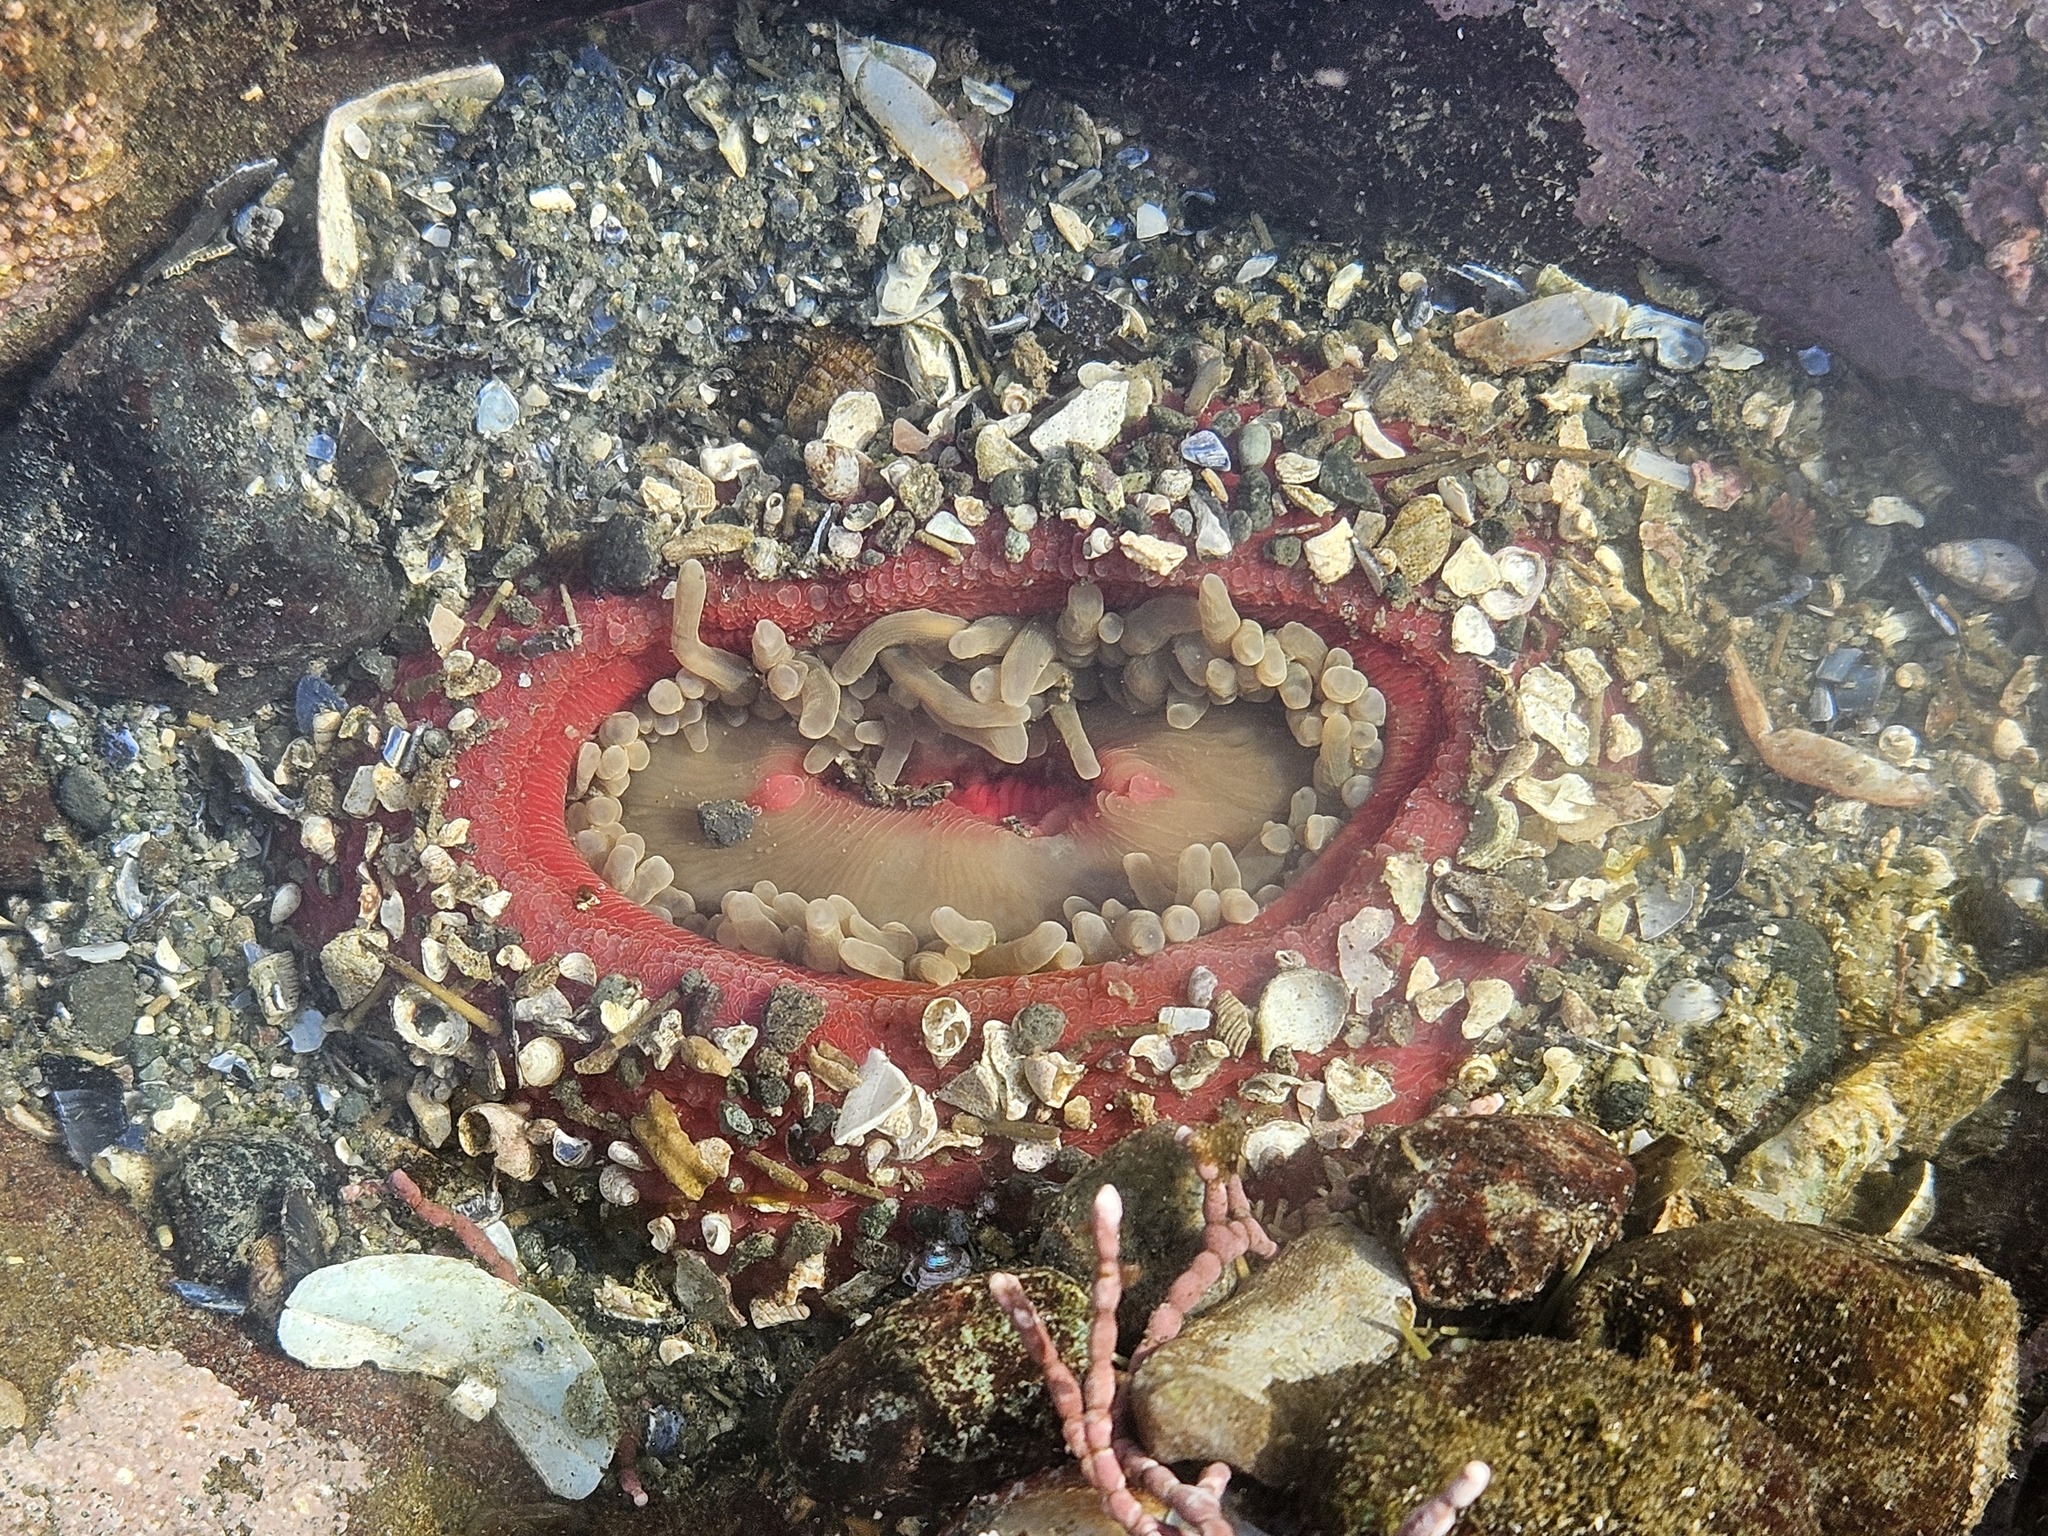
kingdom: Animalia
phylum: Cnidaria
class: Anthozoa
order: Actiniaria
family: Actiniidae
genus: Urticina
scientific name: Urticina clandestina
